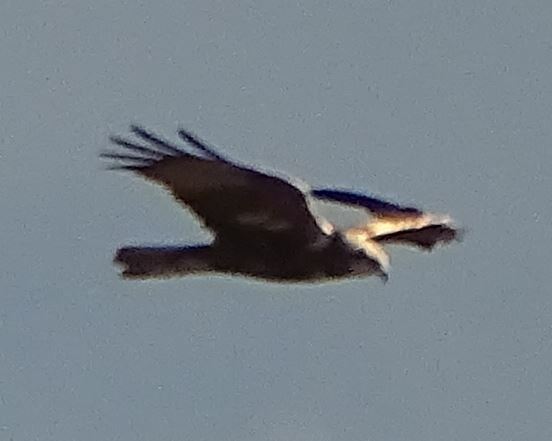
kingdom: Animalia
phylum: Chordata
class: Aves
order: Accipitriformes
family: Accipitridae
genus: Circus
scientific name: Circus aeruginosus
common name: Western marsh harrier
